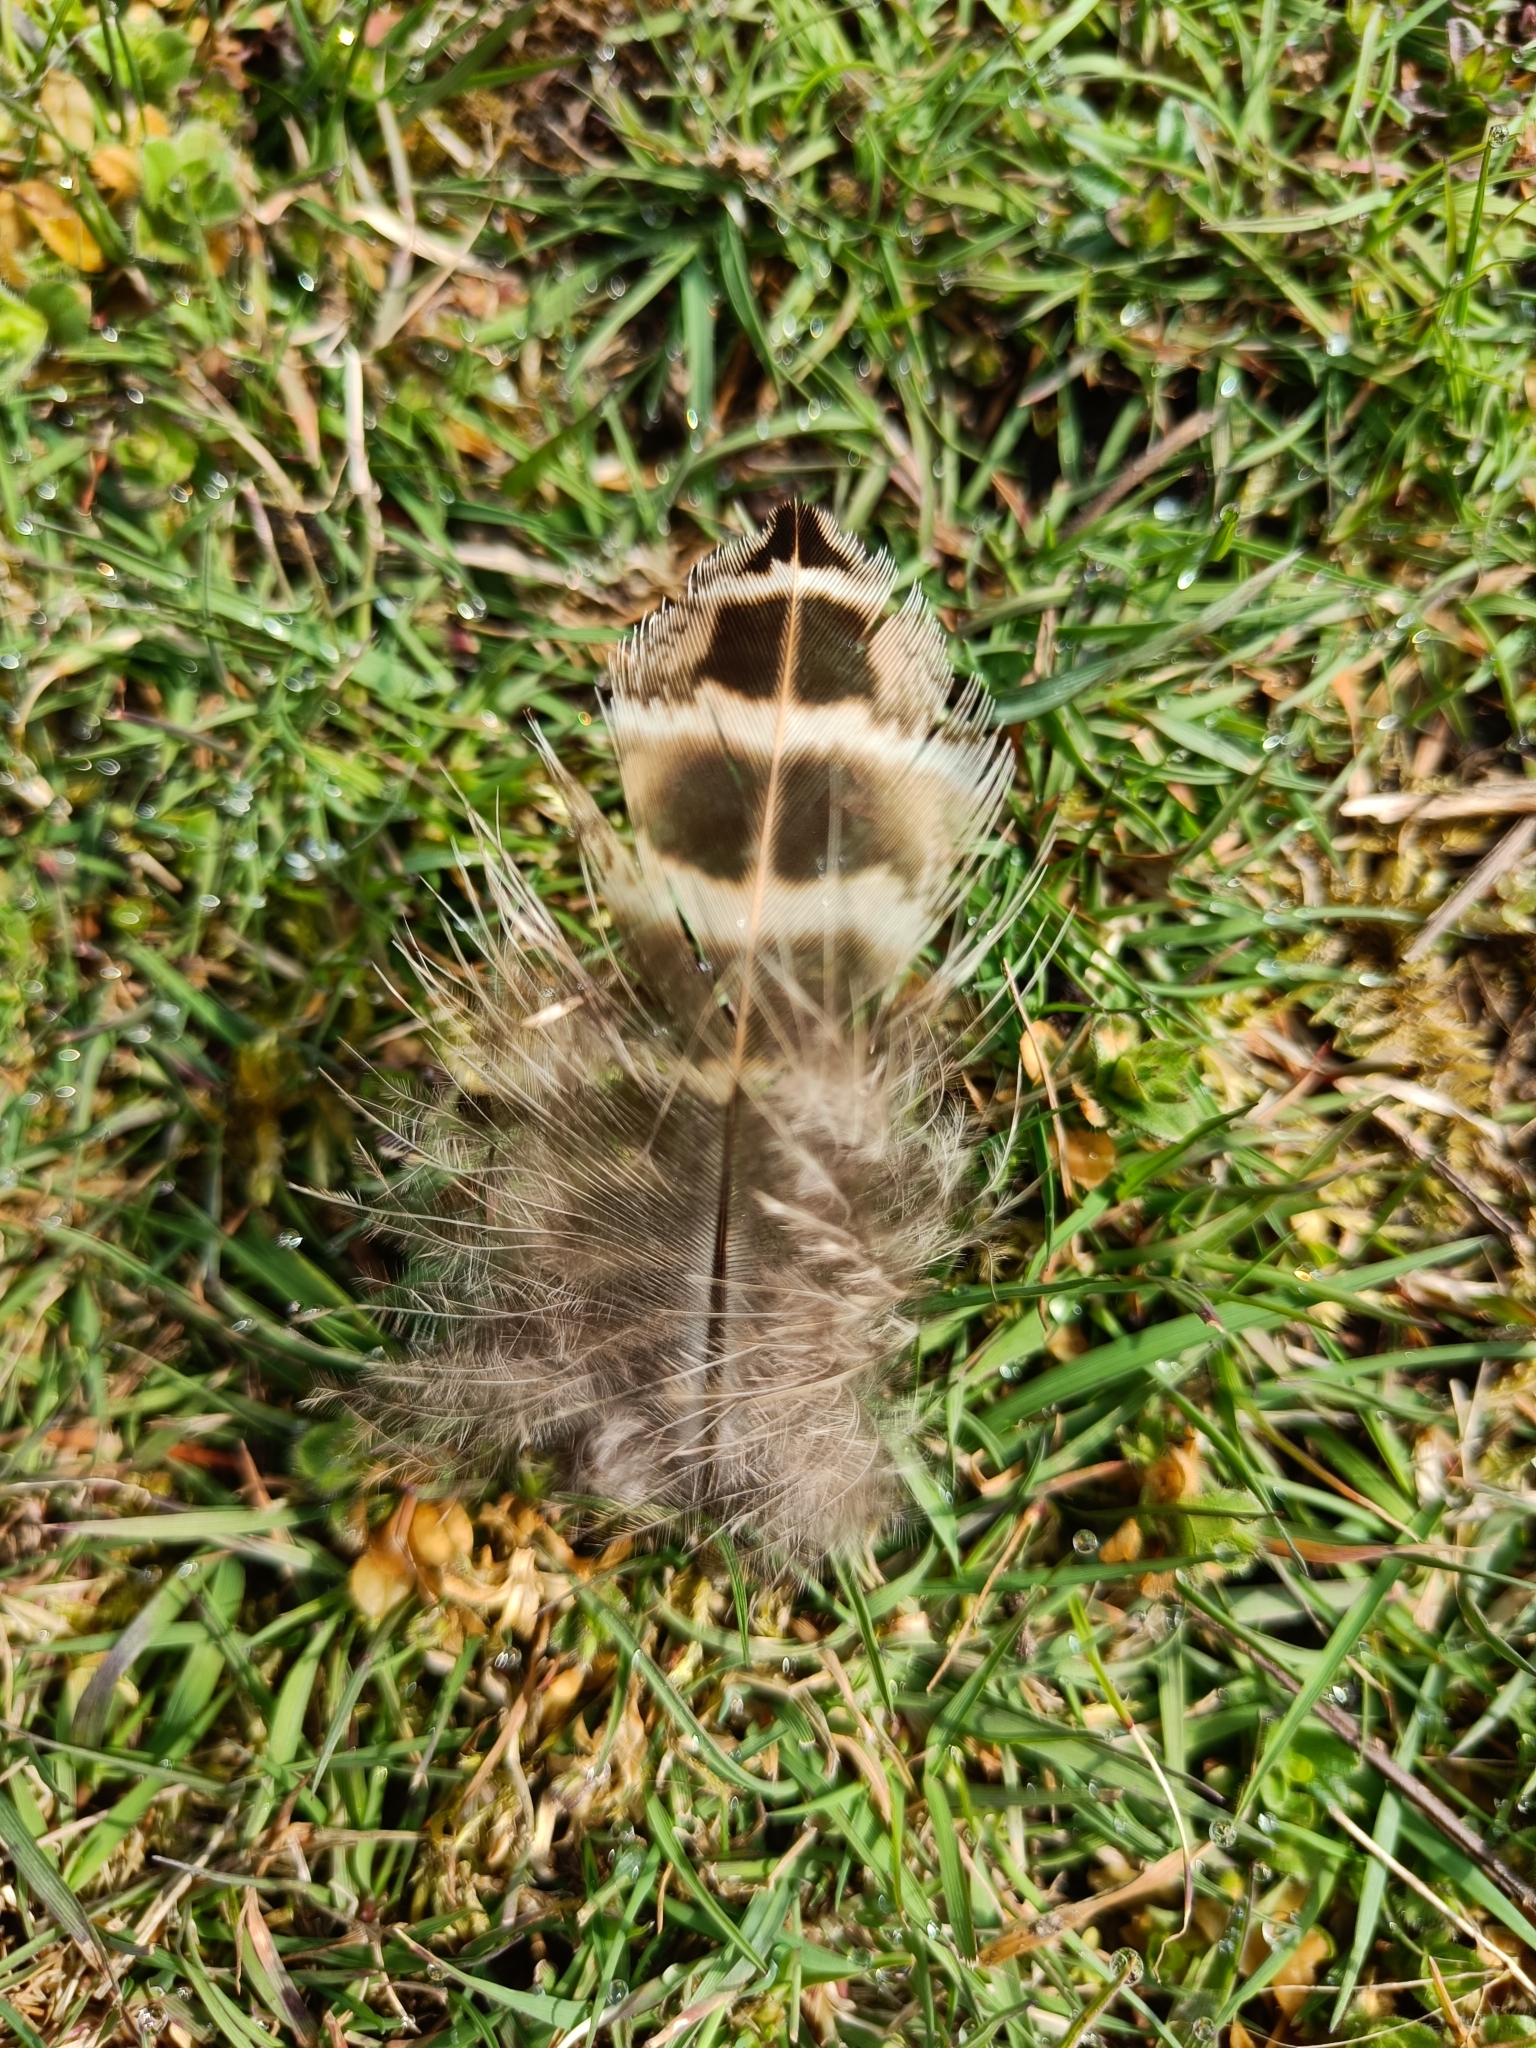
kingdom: Animalia
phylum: Chordata
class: Aves
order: Galliformes
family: Phasianidae
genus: Phasianus
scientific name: Phasianus colchicus
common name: Common pheasant
